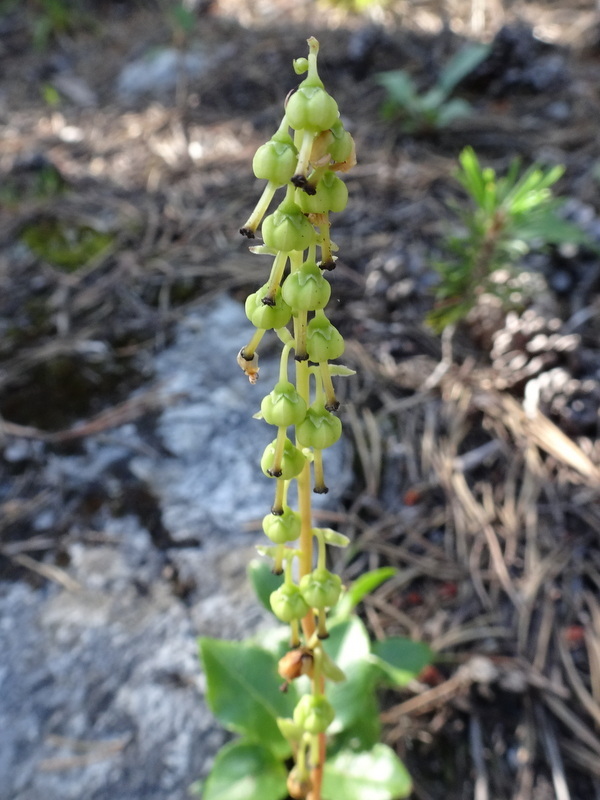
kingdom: Plantae
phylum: Tracheophyta
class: Magnoliopsida
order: Ericales
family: Ericaceae
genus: Orthilia
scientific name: Orthilia secunda
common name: One-sided orthilia
